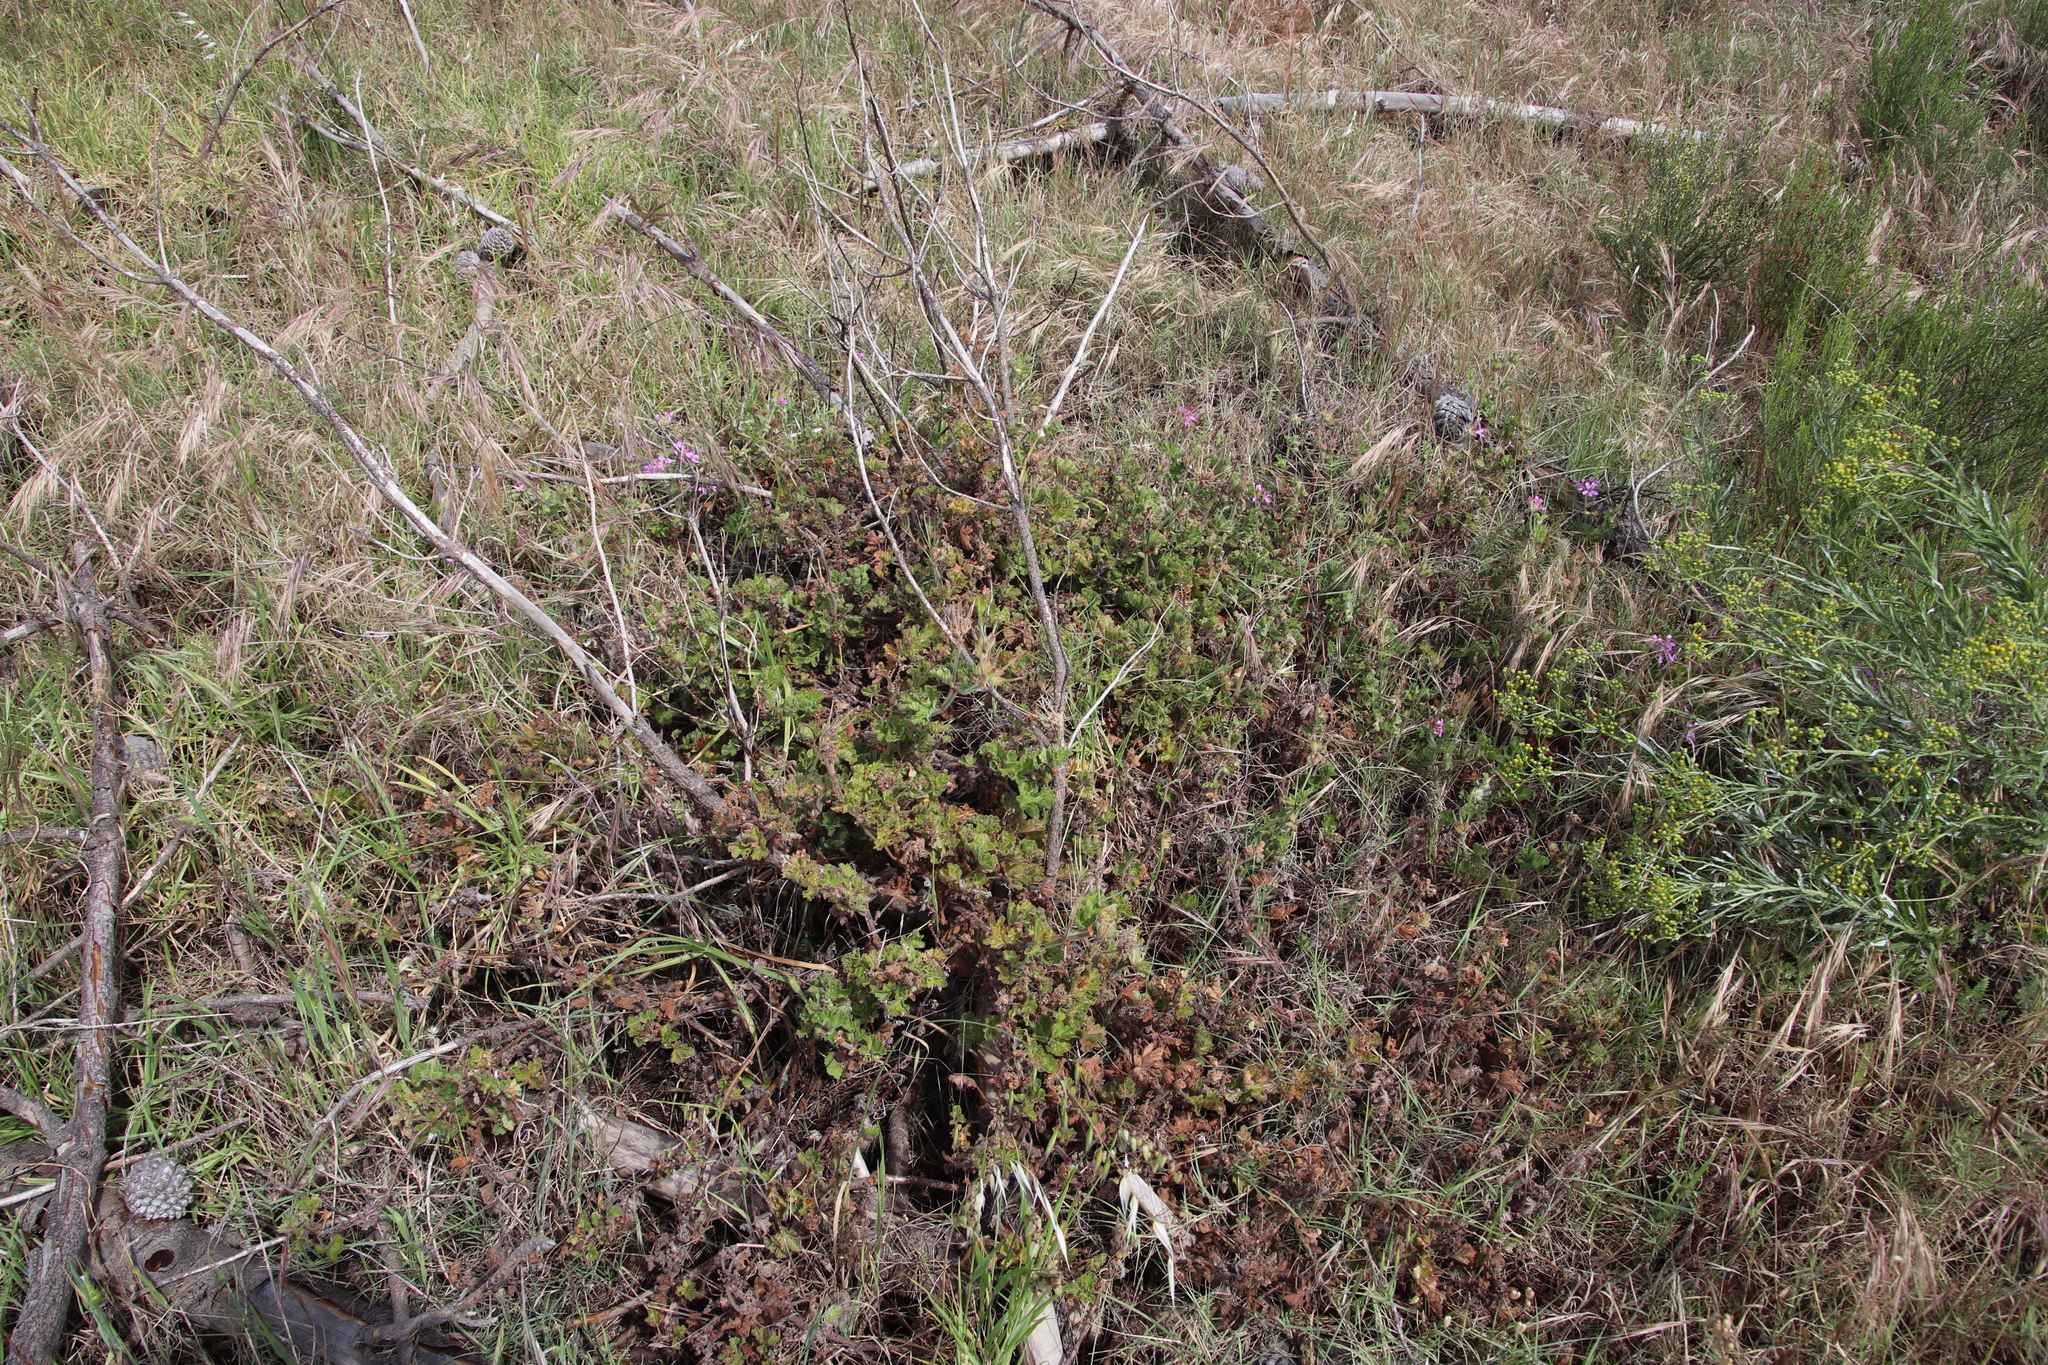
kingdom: Plantae
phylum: Tracheophyta
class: Magnoliopsida
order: Geraniales
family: Geraniaceae
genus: Pelargonium
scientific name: Pelargonium capitatum
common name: Rose scented geranium
